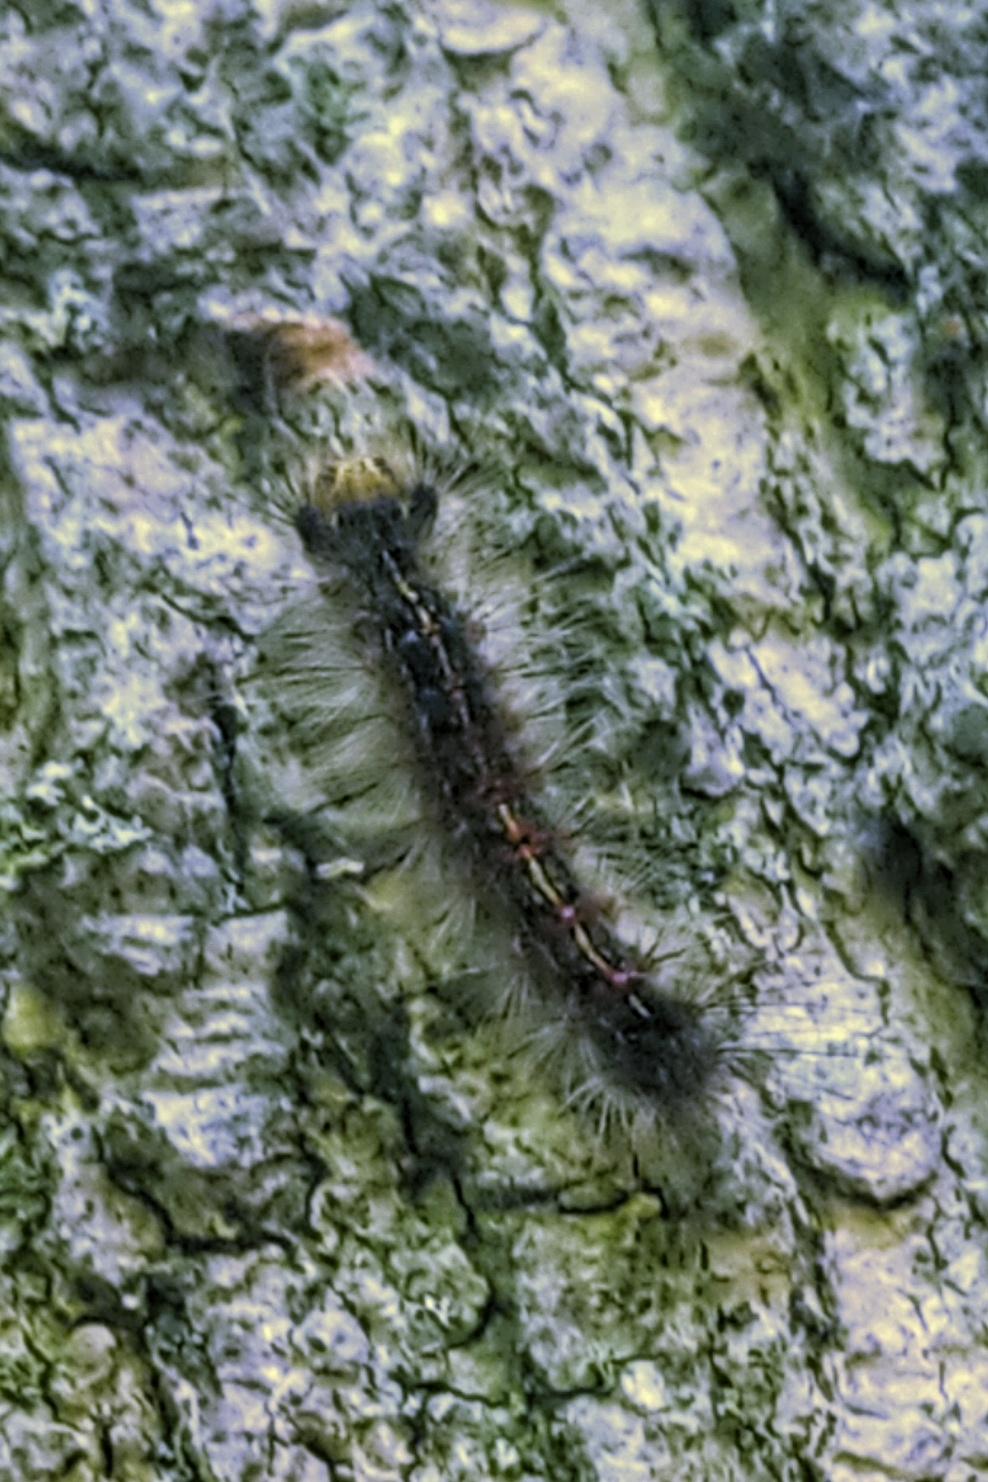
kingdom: Animalia
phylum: Arthropoda
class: Insecta
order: Lepidoptera
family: Erebidae
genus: Lymantria
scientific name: Lymantria dispar
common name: Gypsy moth
